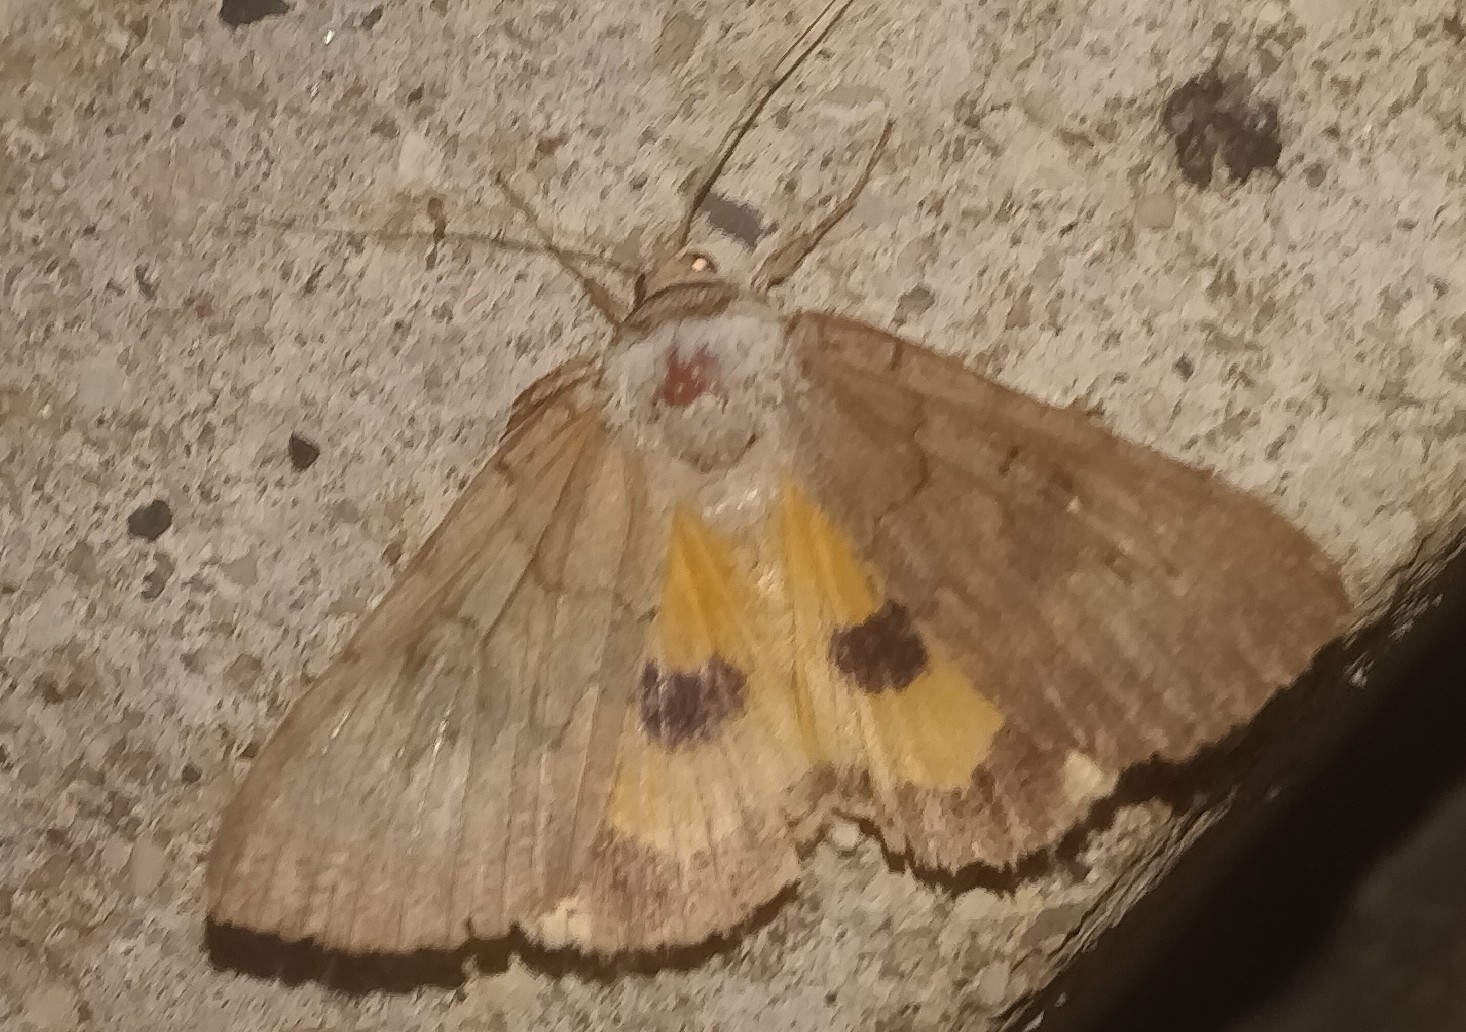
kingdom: Animalia
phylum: Arthropoda
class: Insecta
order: Lepidoptera
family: Erebidae
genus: Catocala
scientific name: Catocala illecta
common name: Magdalen underwing
